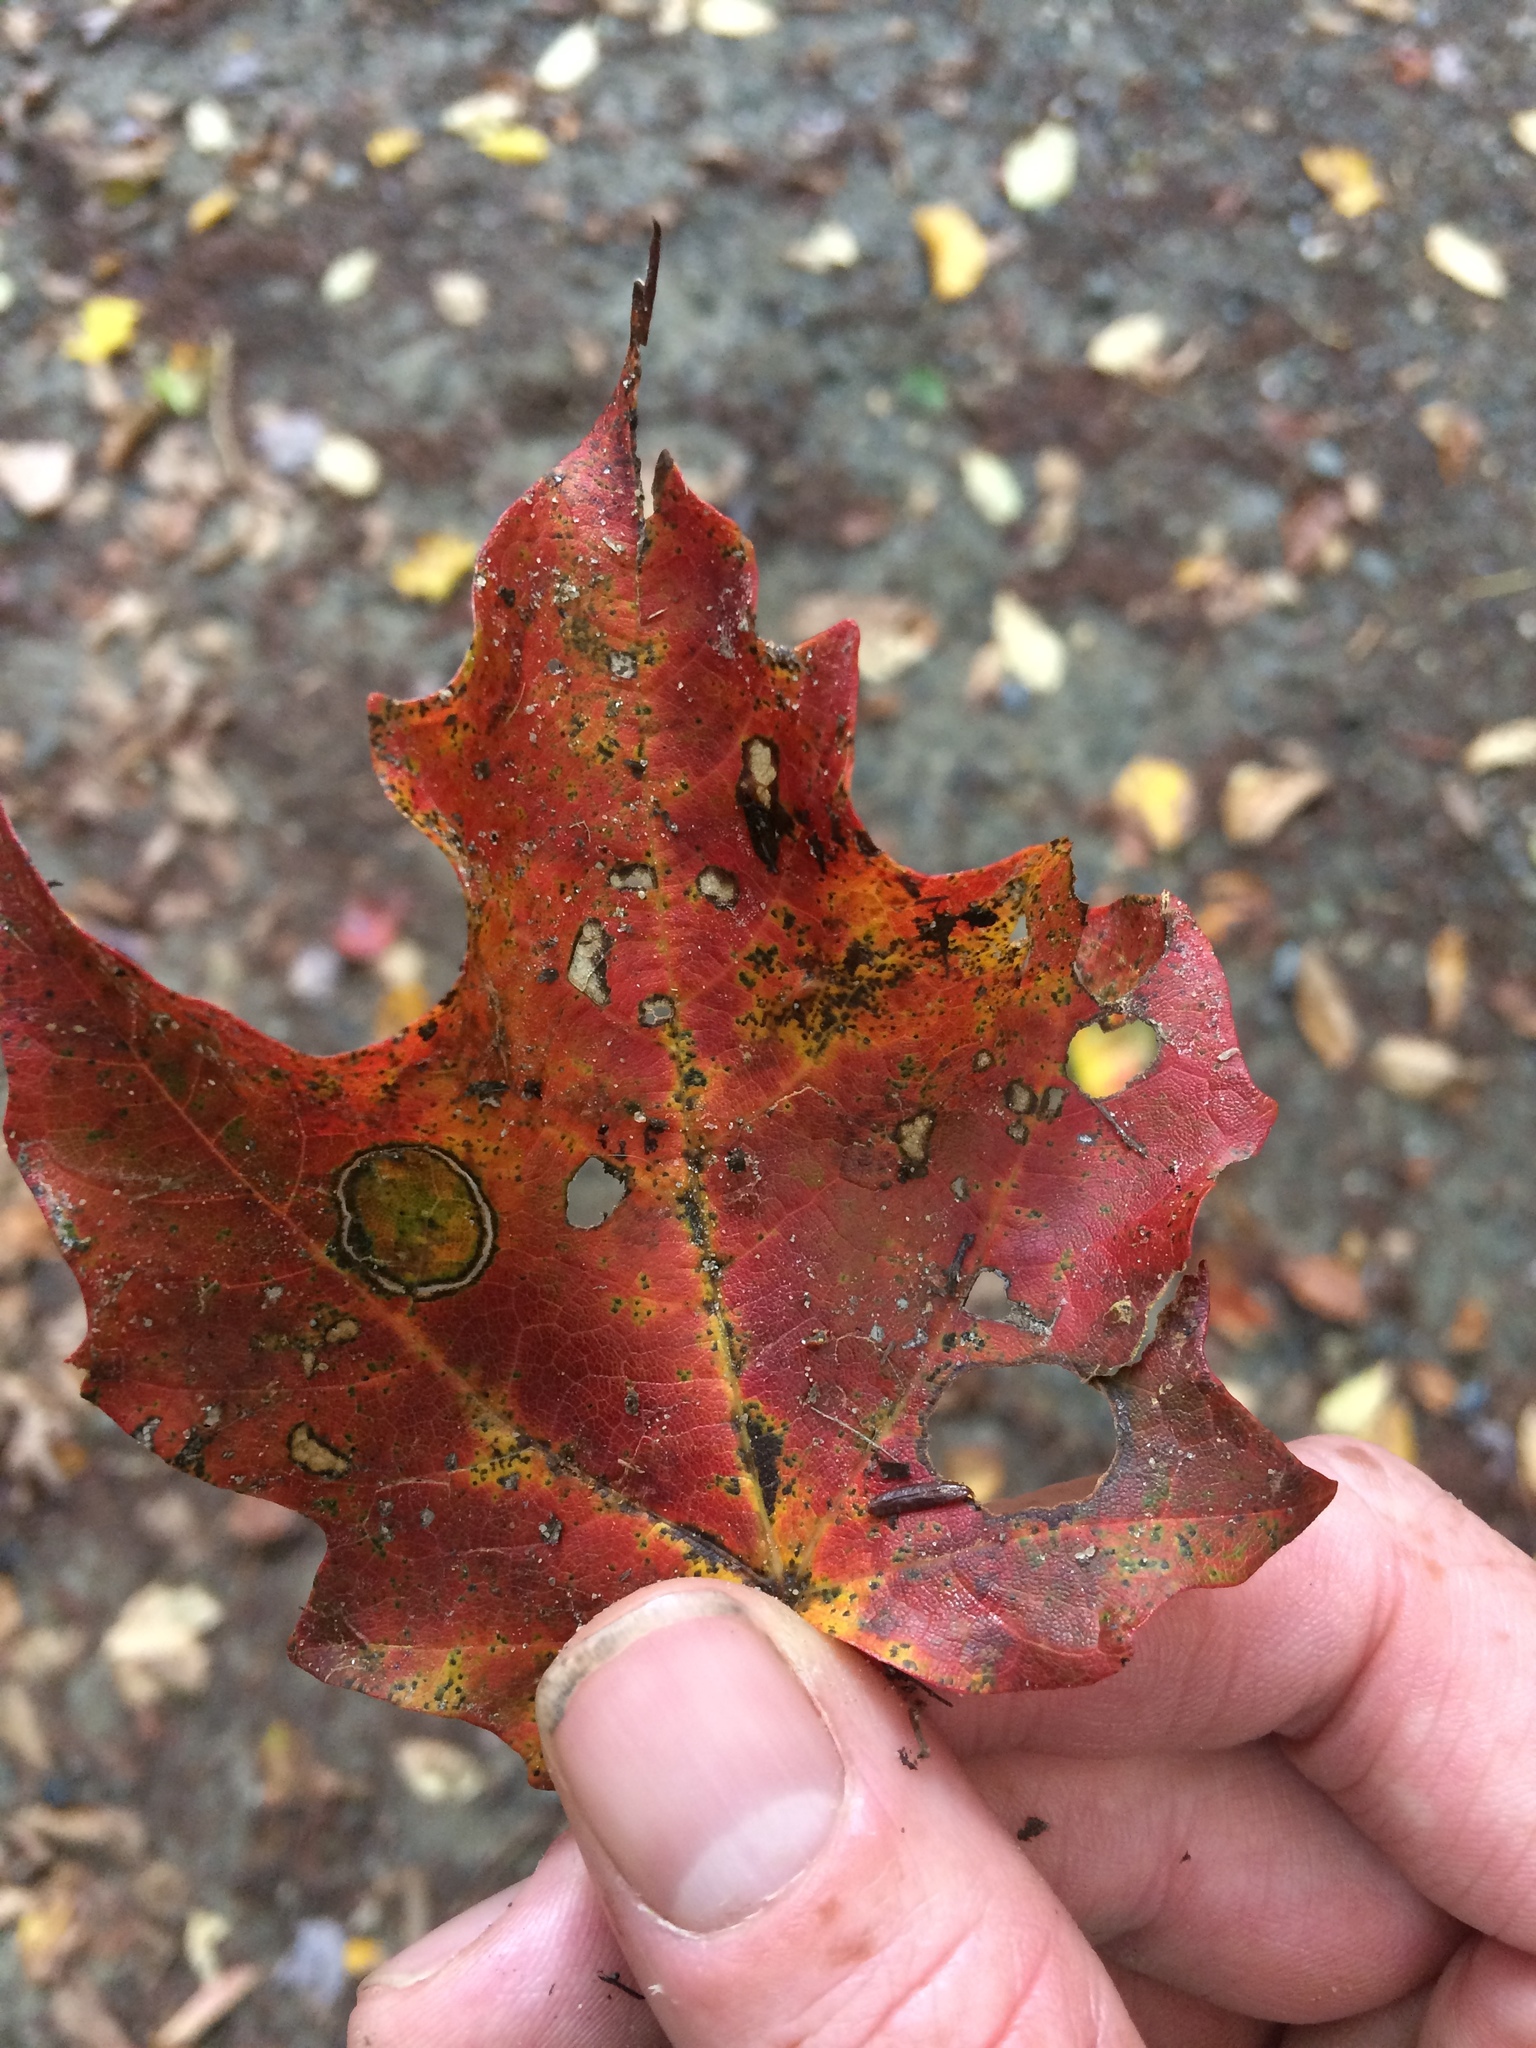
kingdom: Animalia
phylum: Arthropoda
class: Insecta
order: Lepidoptera
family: Incurvariidae
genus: Paraclemensia
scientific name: Paraclemensia acerifoliella
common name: Maple leafcutter
